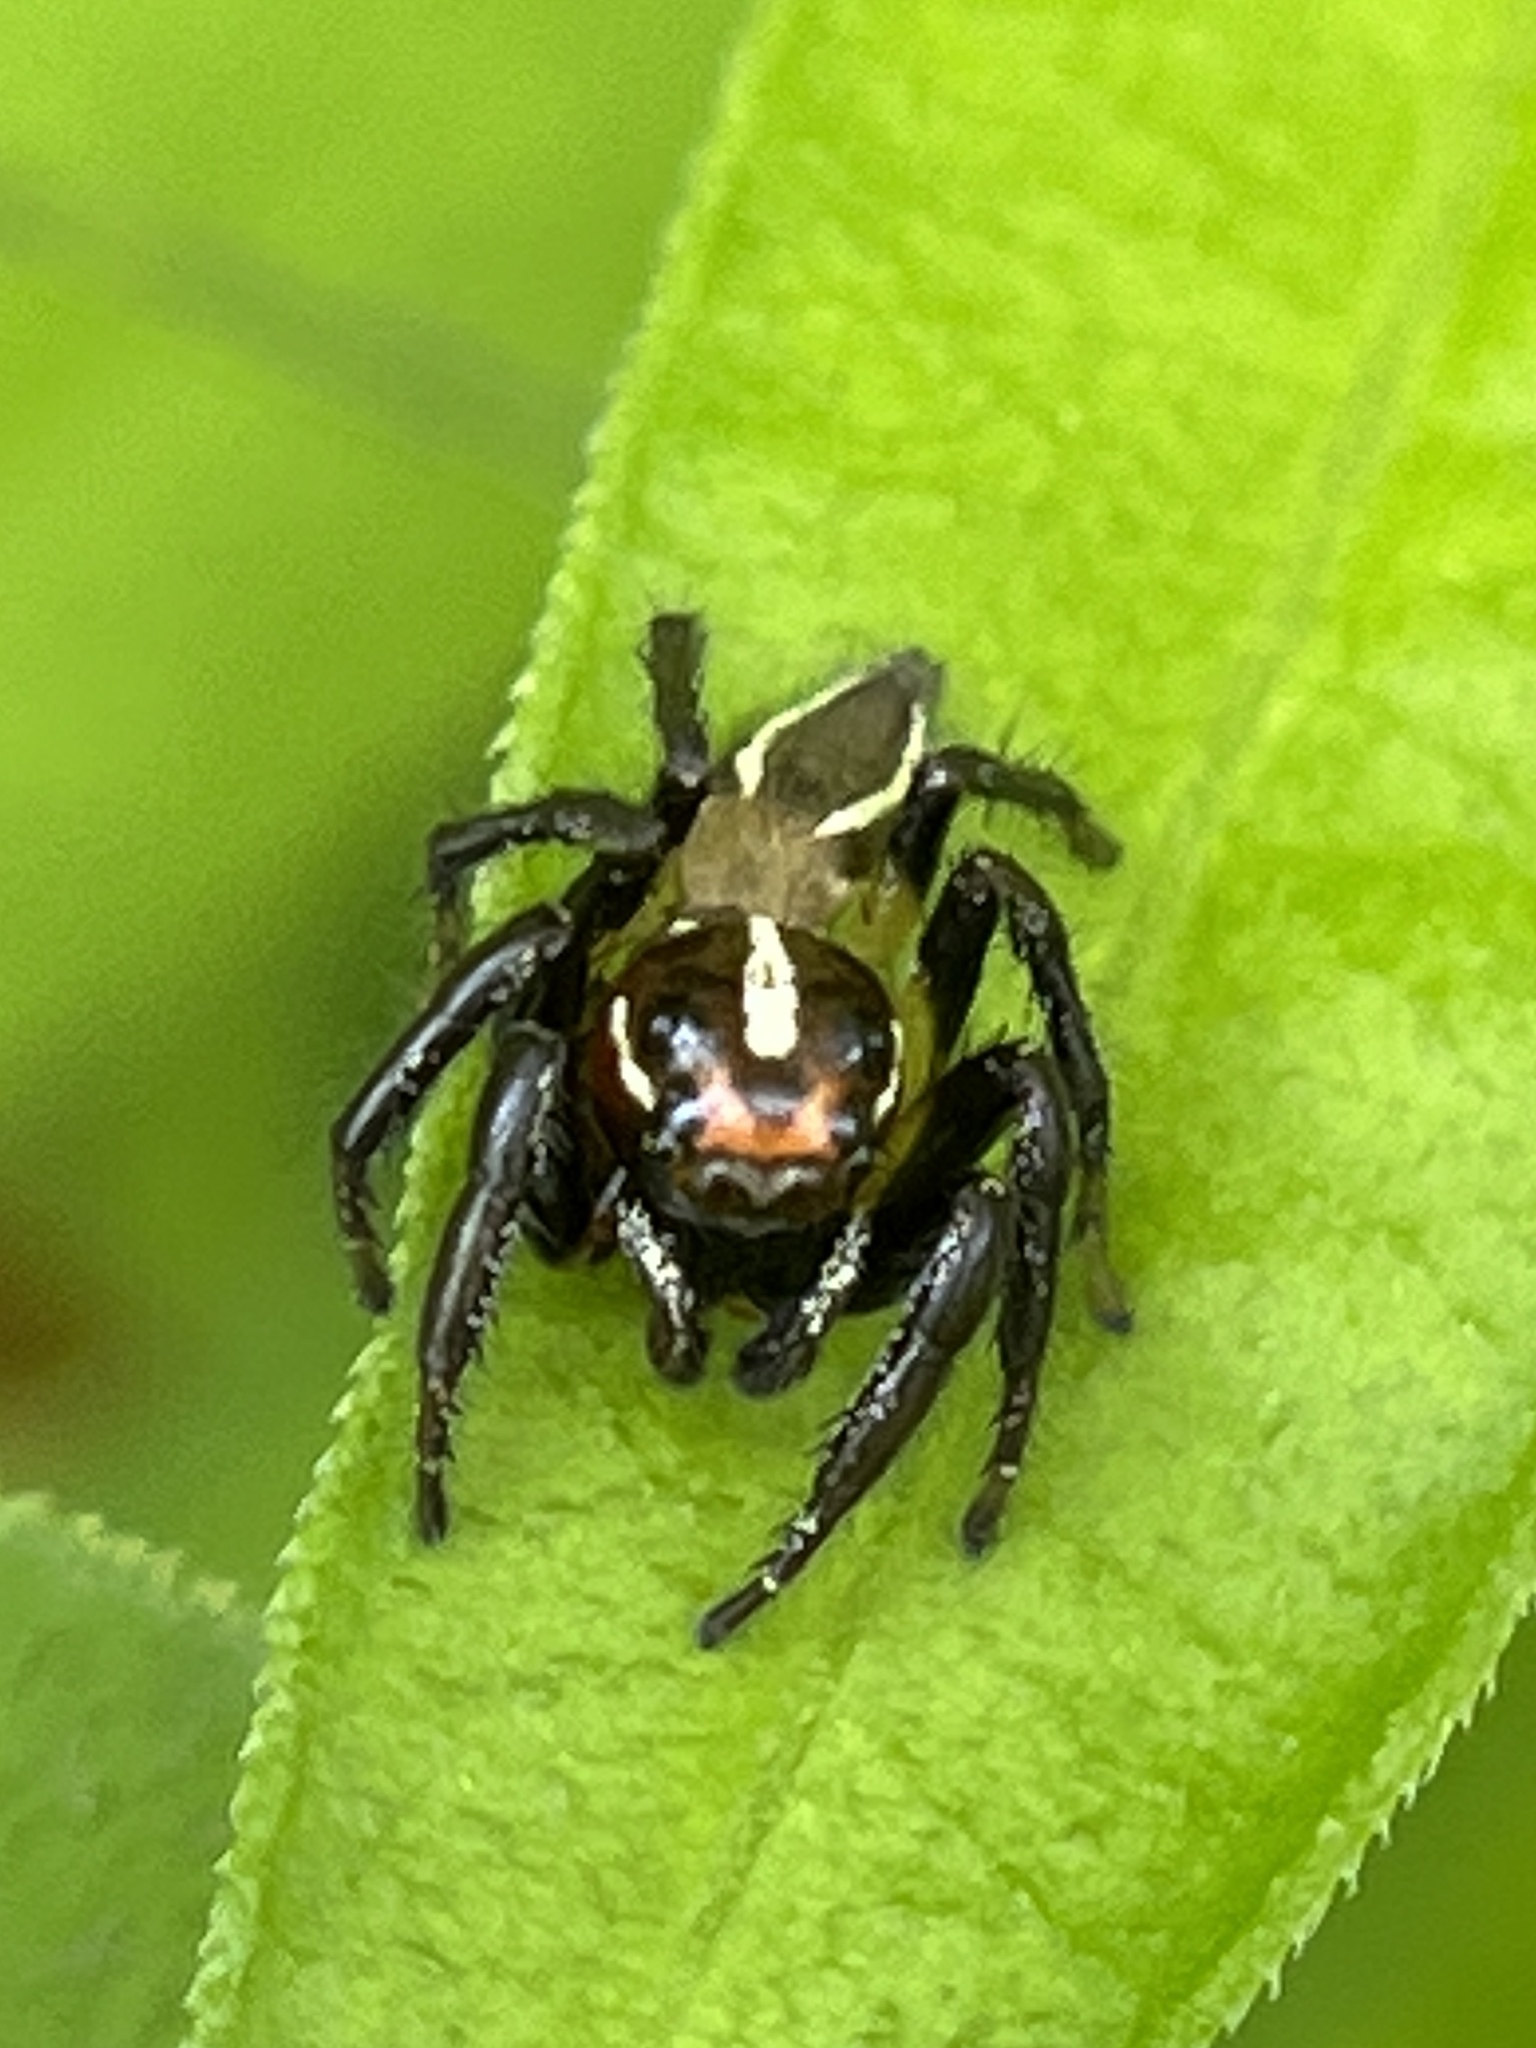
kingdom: Animalia
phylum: Arthropoda
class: Arachnida
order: Araneae
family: Salticidae
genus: Colonus
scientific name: Colonus puerperus
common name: Jumping spiders
